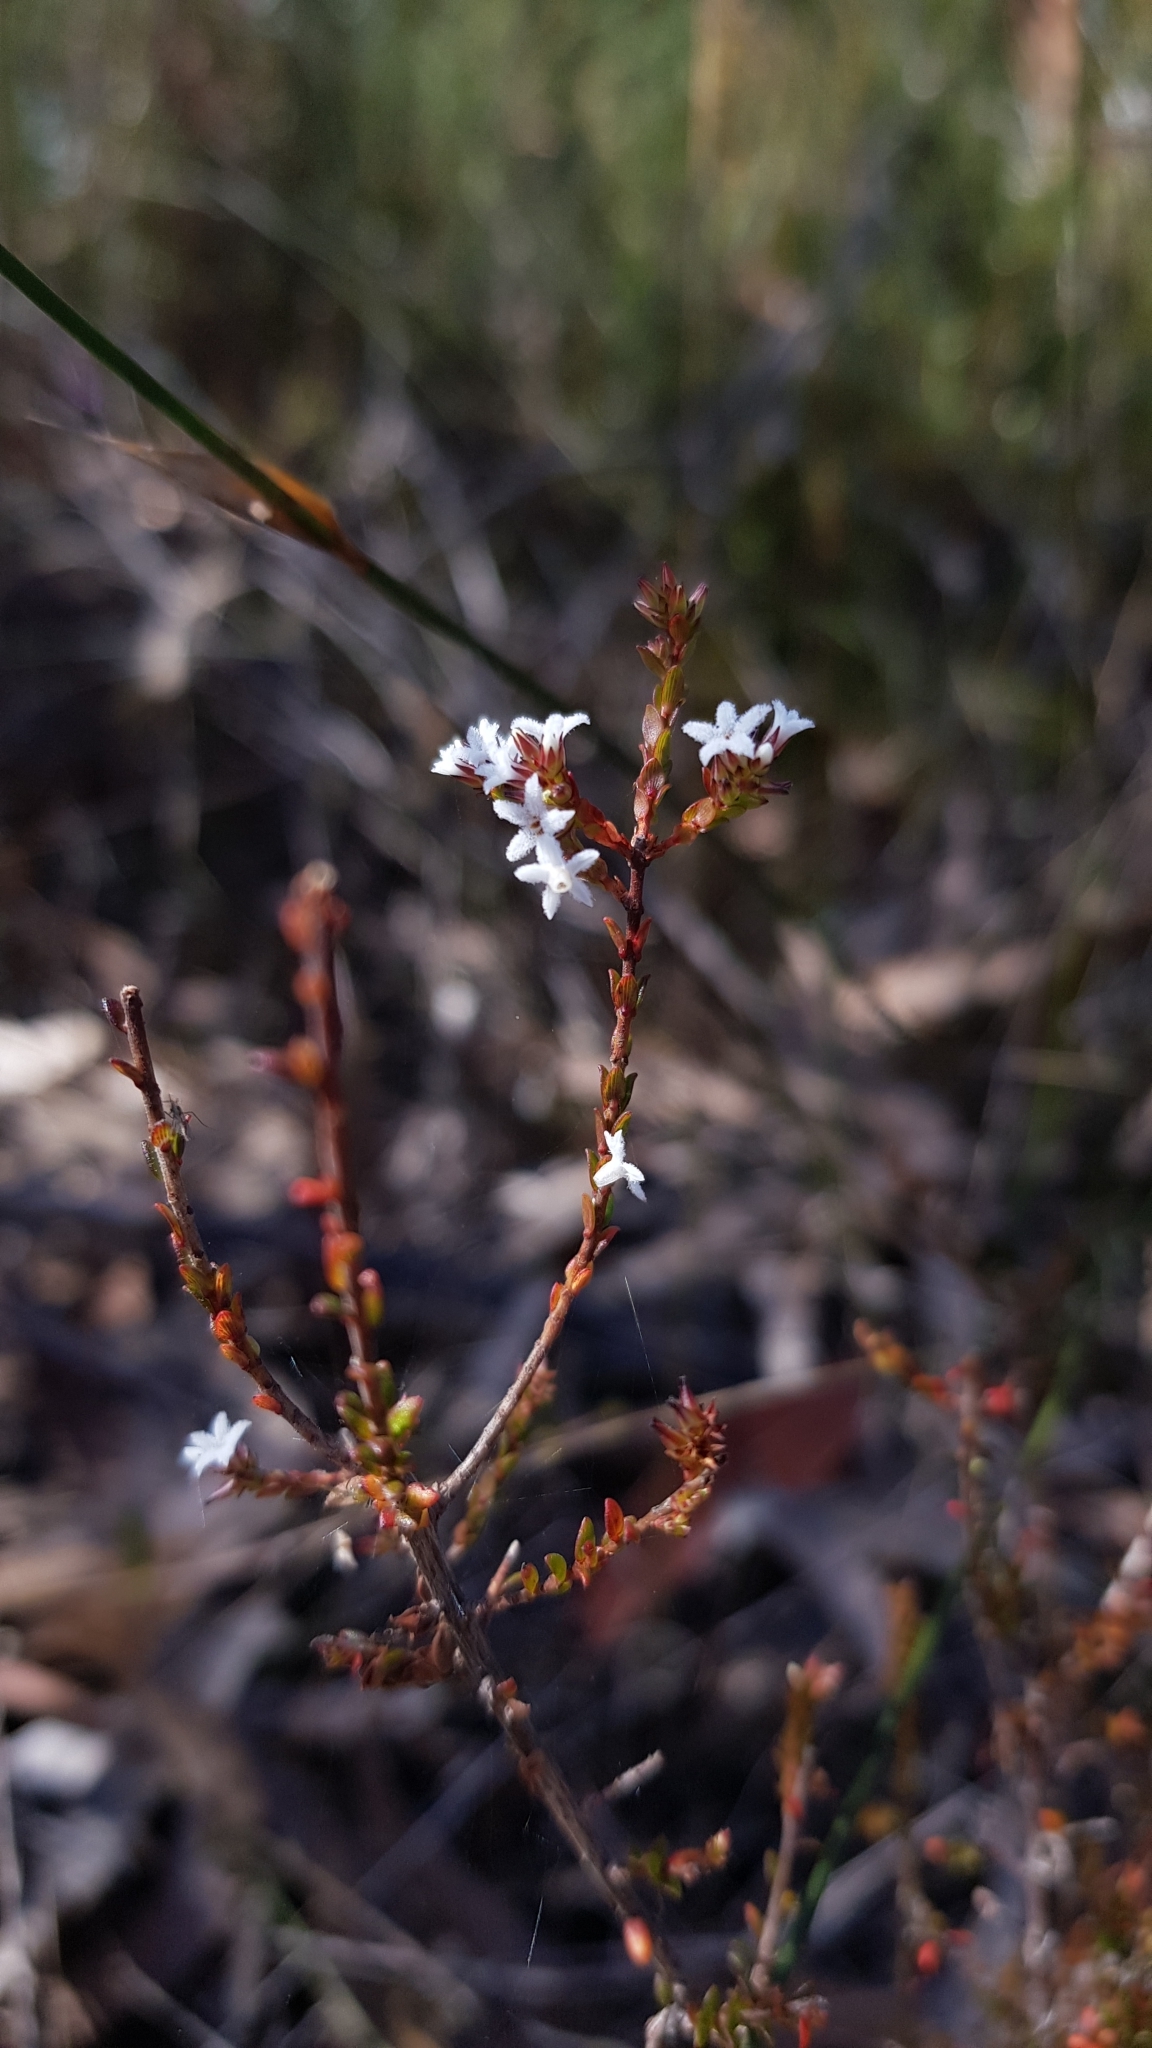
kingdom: Plantae
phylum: Tracheophyta
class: Magnoliopsida
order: Ericales
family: Ericaceae
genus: Leucopogon
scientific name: Leucopogon microphyllus
